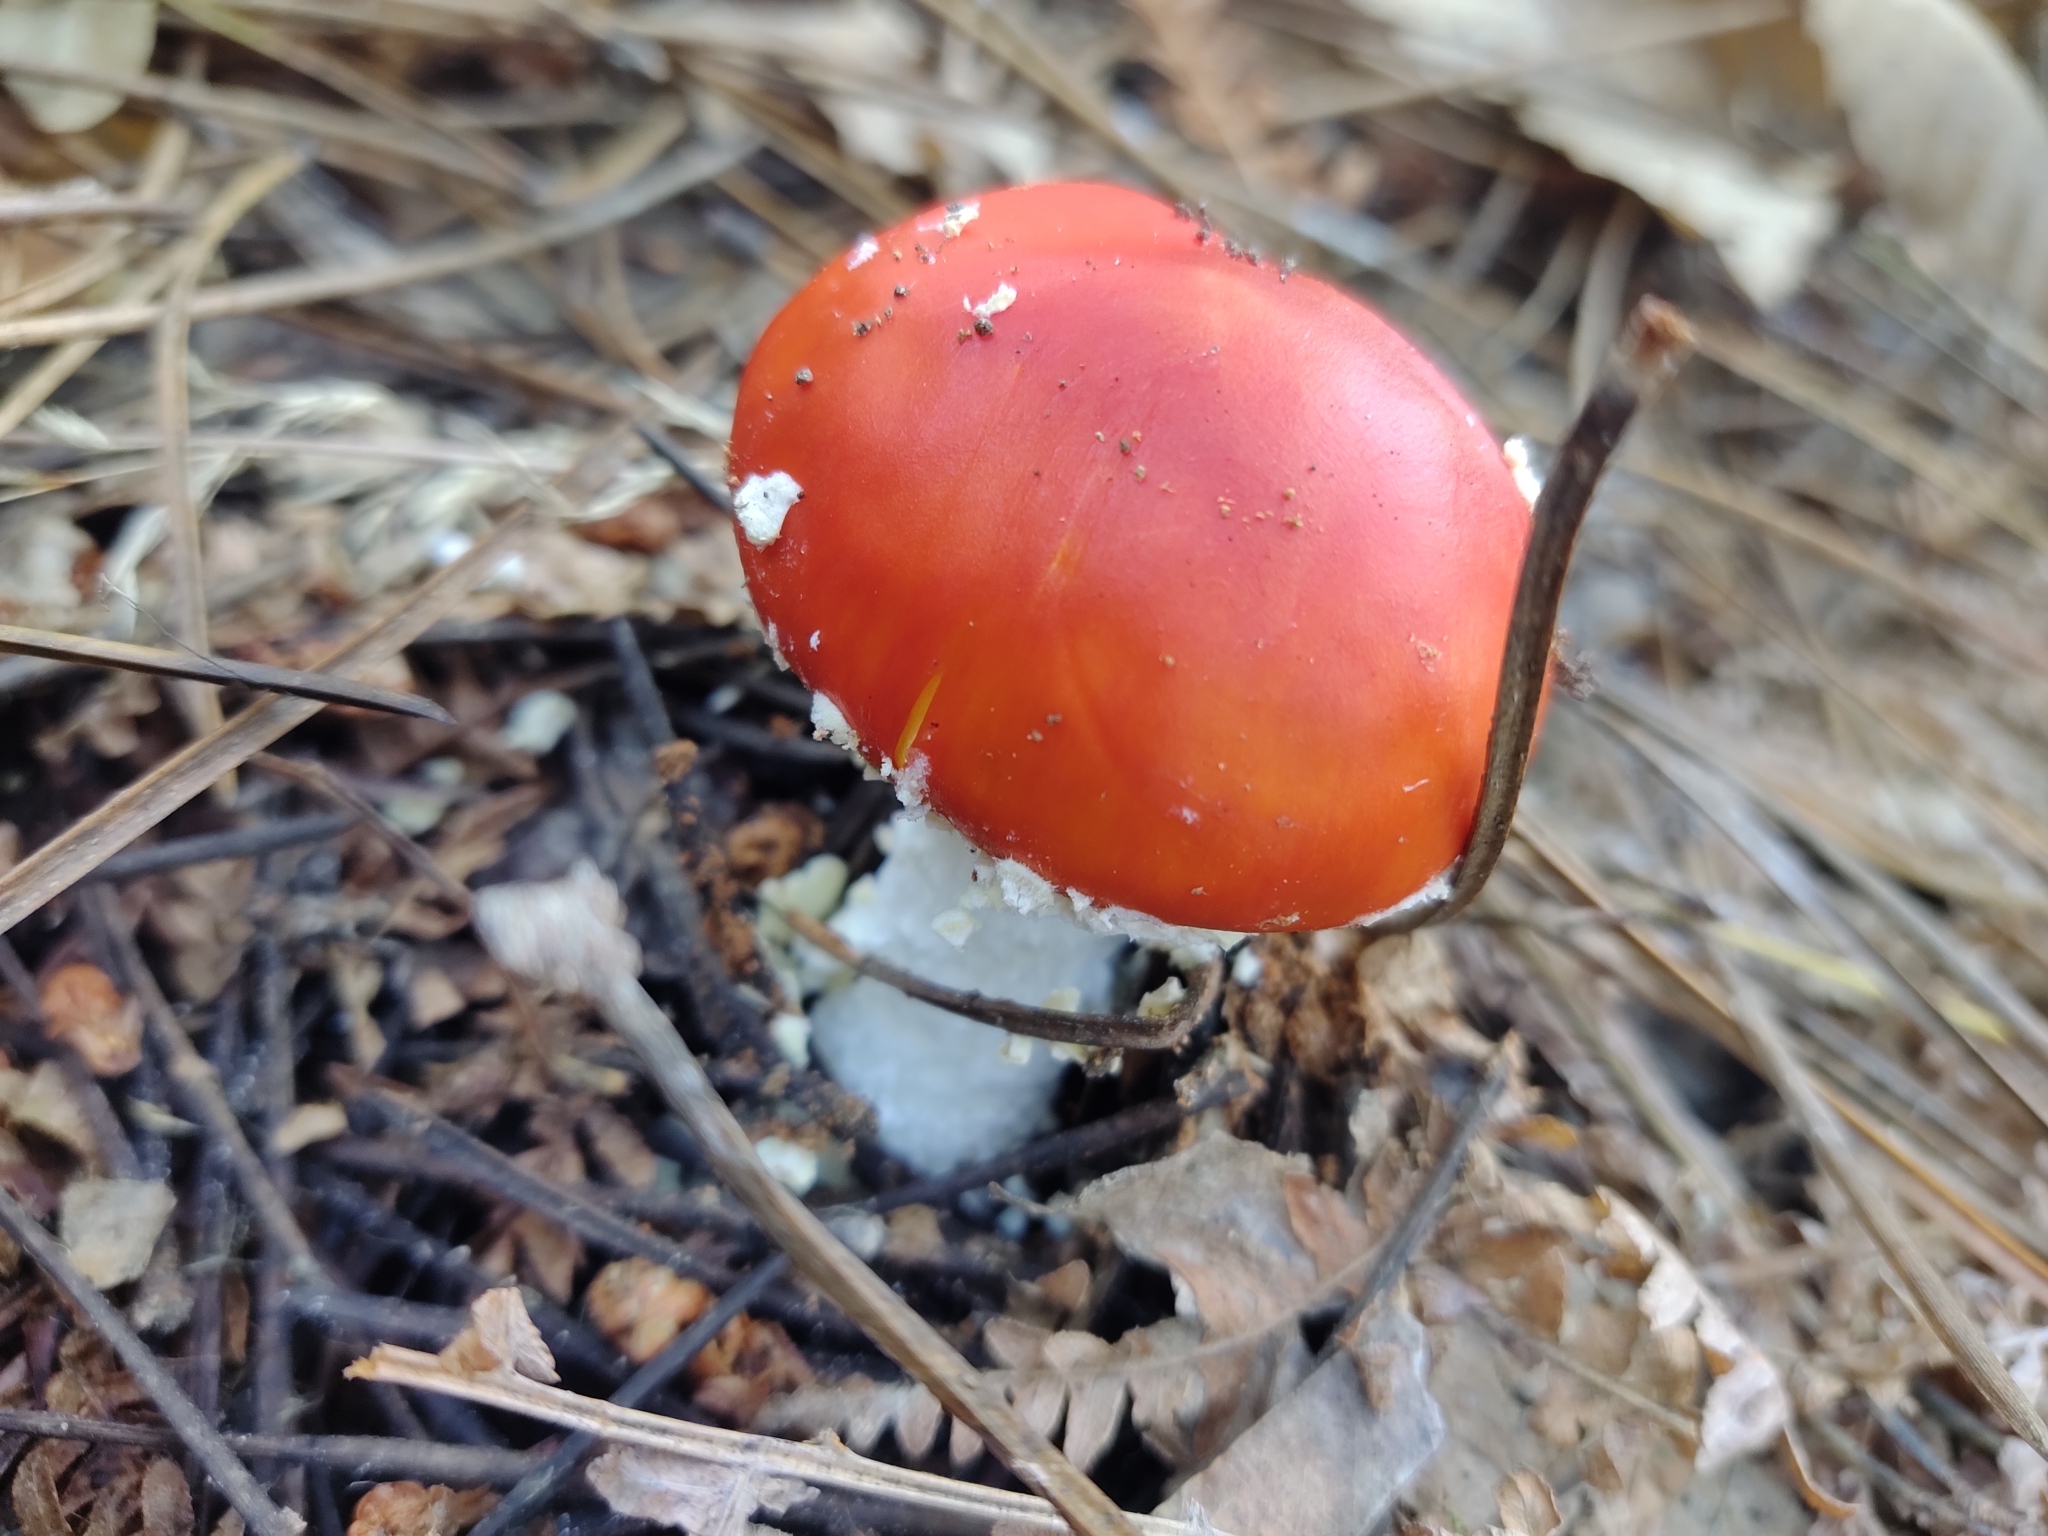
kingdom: Fungi
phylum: Basidiomycota
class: Agaricomycetes
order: Agaricales
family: Amanitaceae
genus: Amanita
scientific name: Amanita muscaria
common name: Fly agaric
